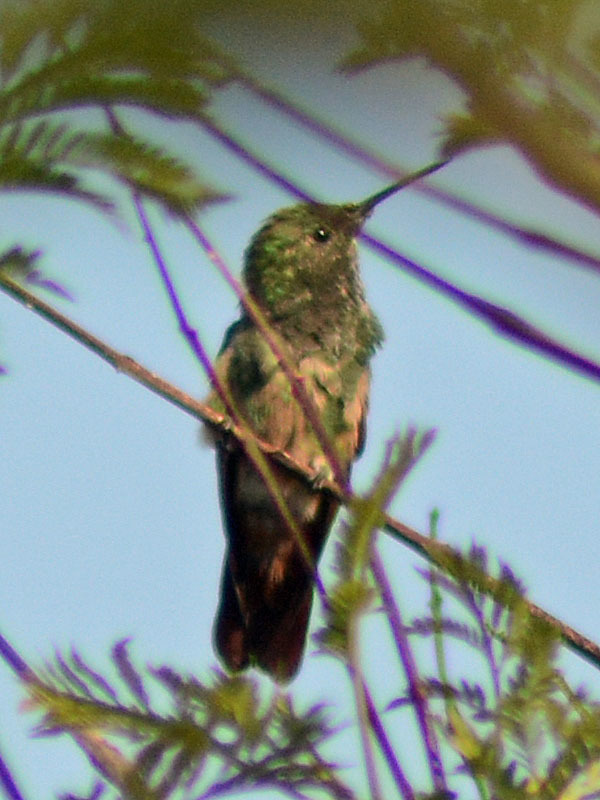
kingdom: Animalia
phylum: Chordata
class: Aves
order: Apodiformes
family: Trochilidae
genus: Saucerottia
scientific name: Saucerottia beryllina
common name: Berylline hummingbird
